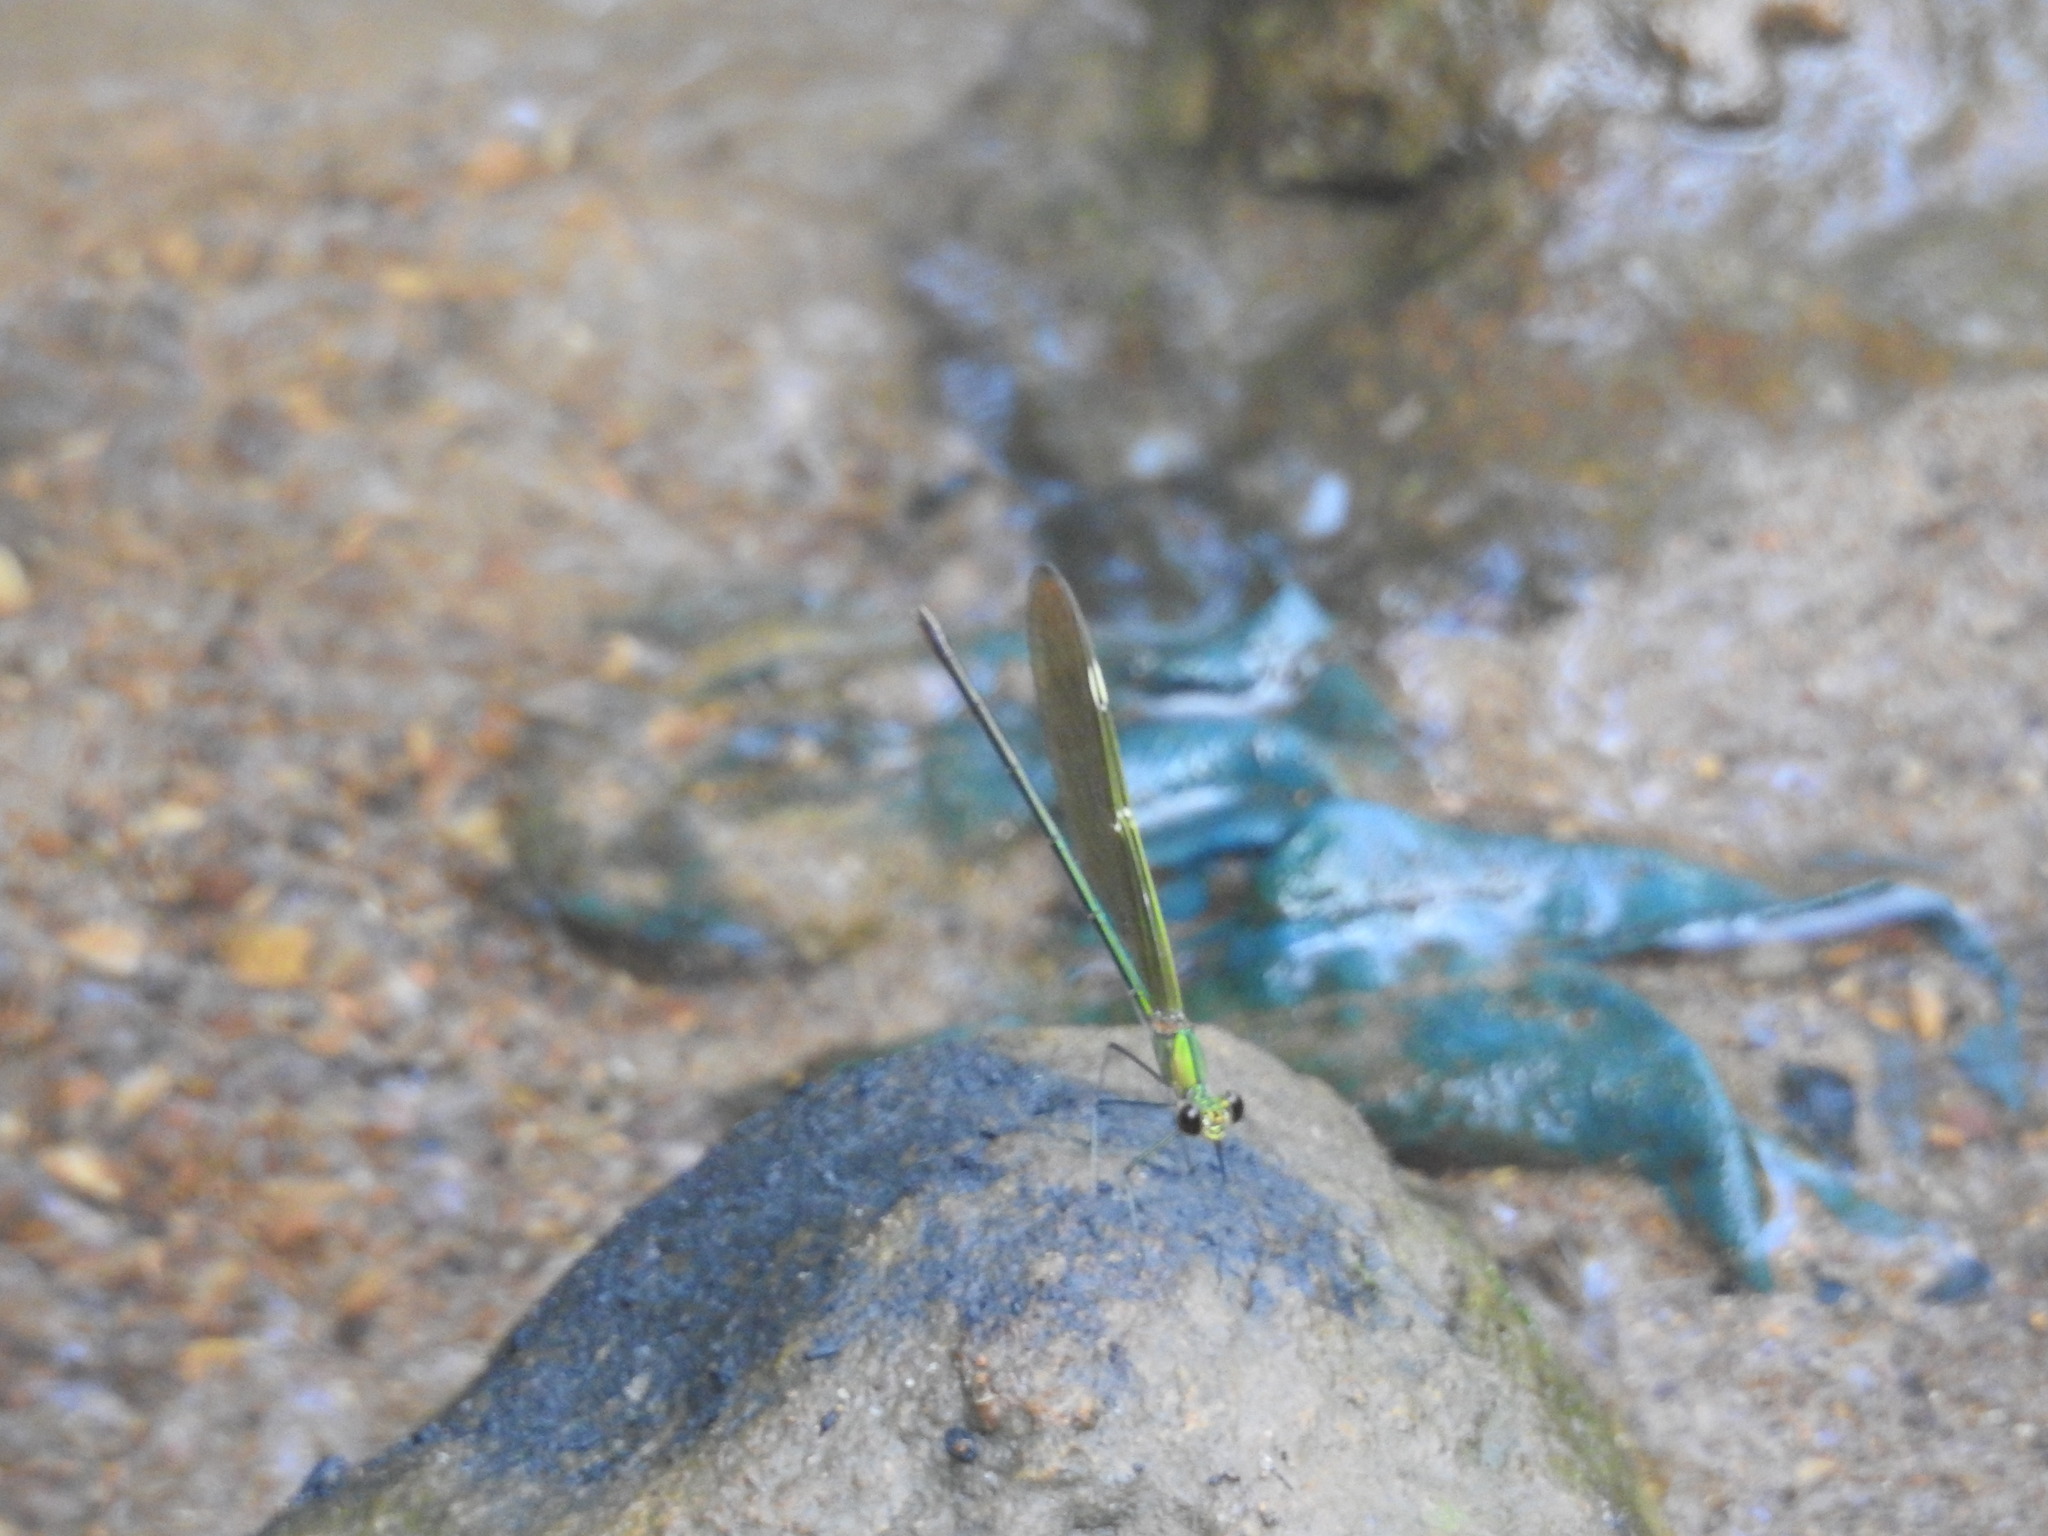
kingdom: Animalia
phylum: Arthropoda
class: Insecta
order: Odonata
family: Calopterygidae
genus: Neurobasis
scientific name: Neurobasis chinensis
